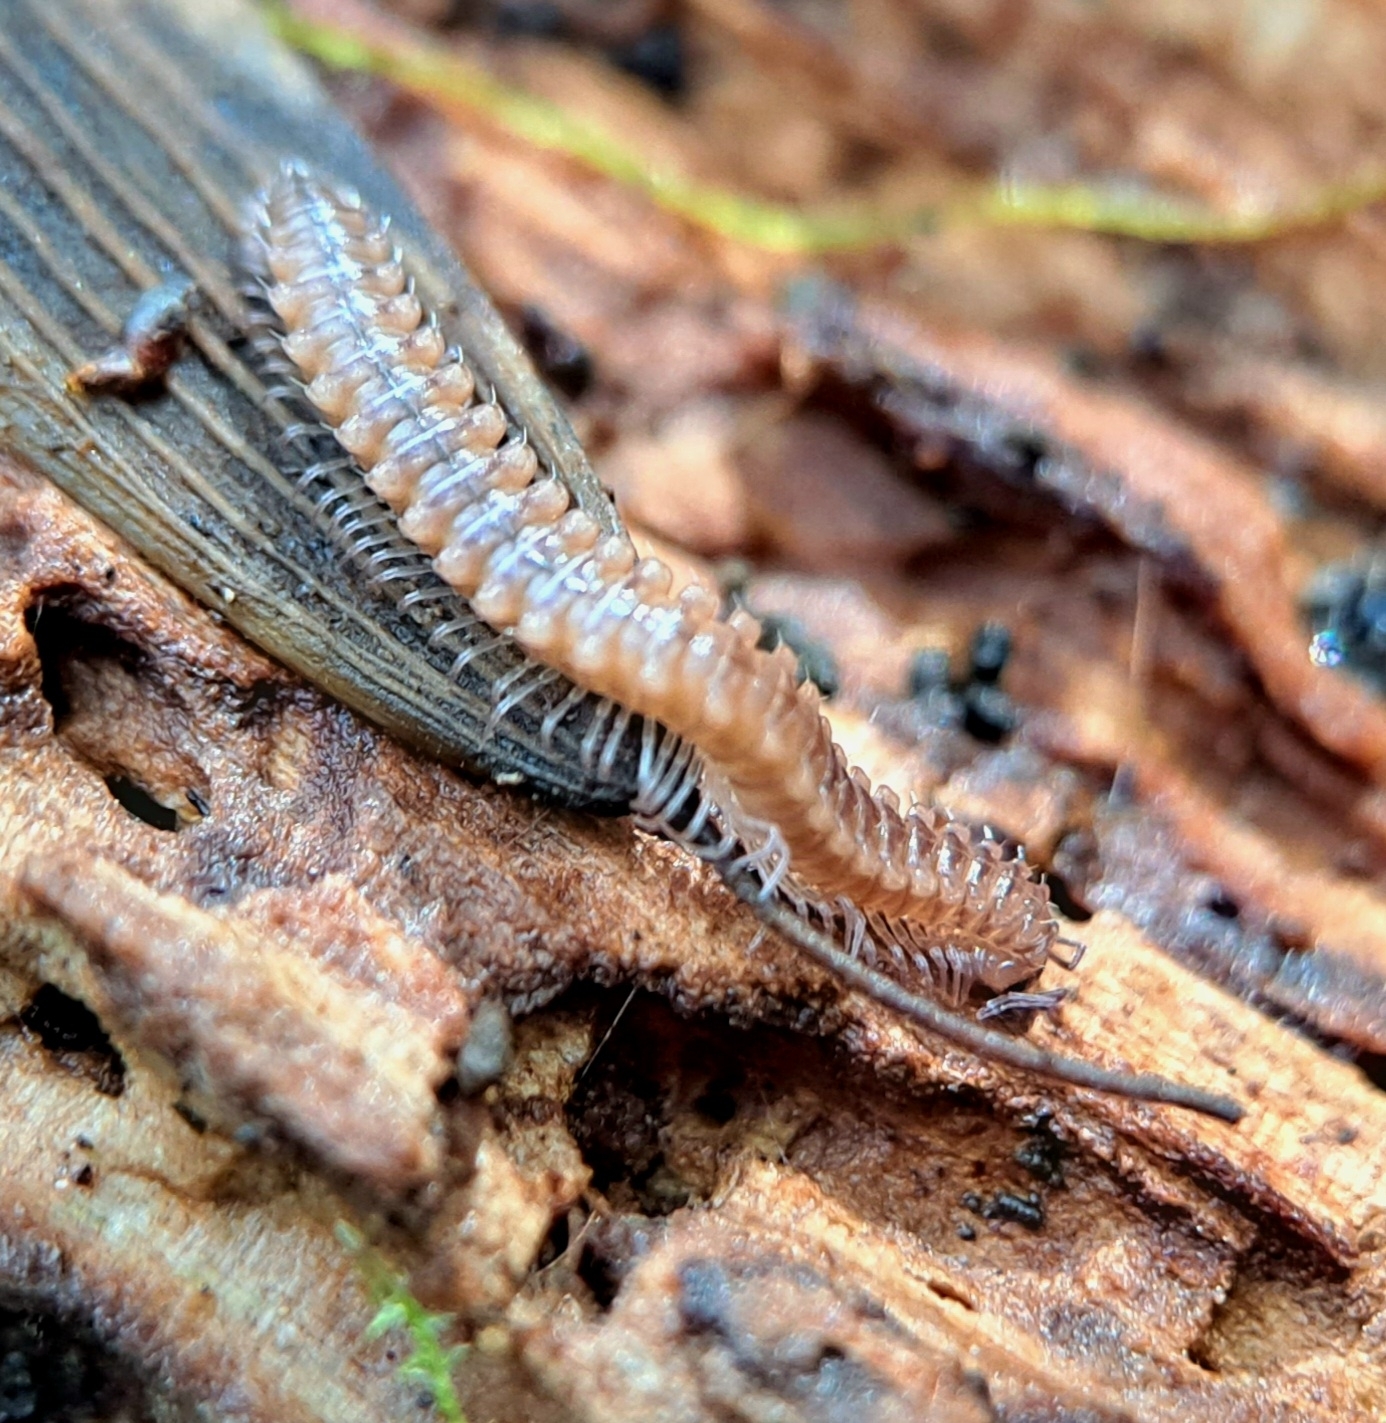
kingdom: Animalia
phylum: Arthropoda
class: Diplopoda
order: Chordeumatida
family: Craspedosomatidae
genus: Nanogona
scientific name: Nanogona polydesmoides
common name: Eyed flat-backed millipede
